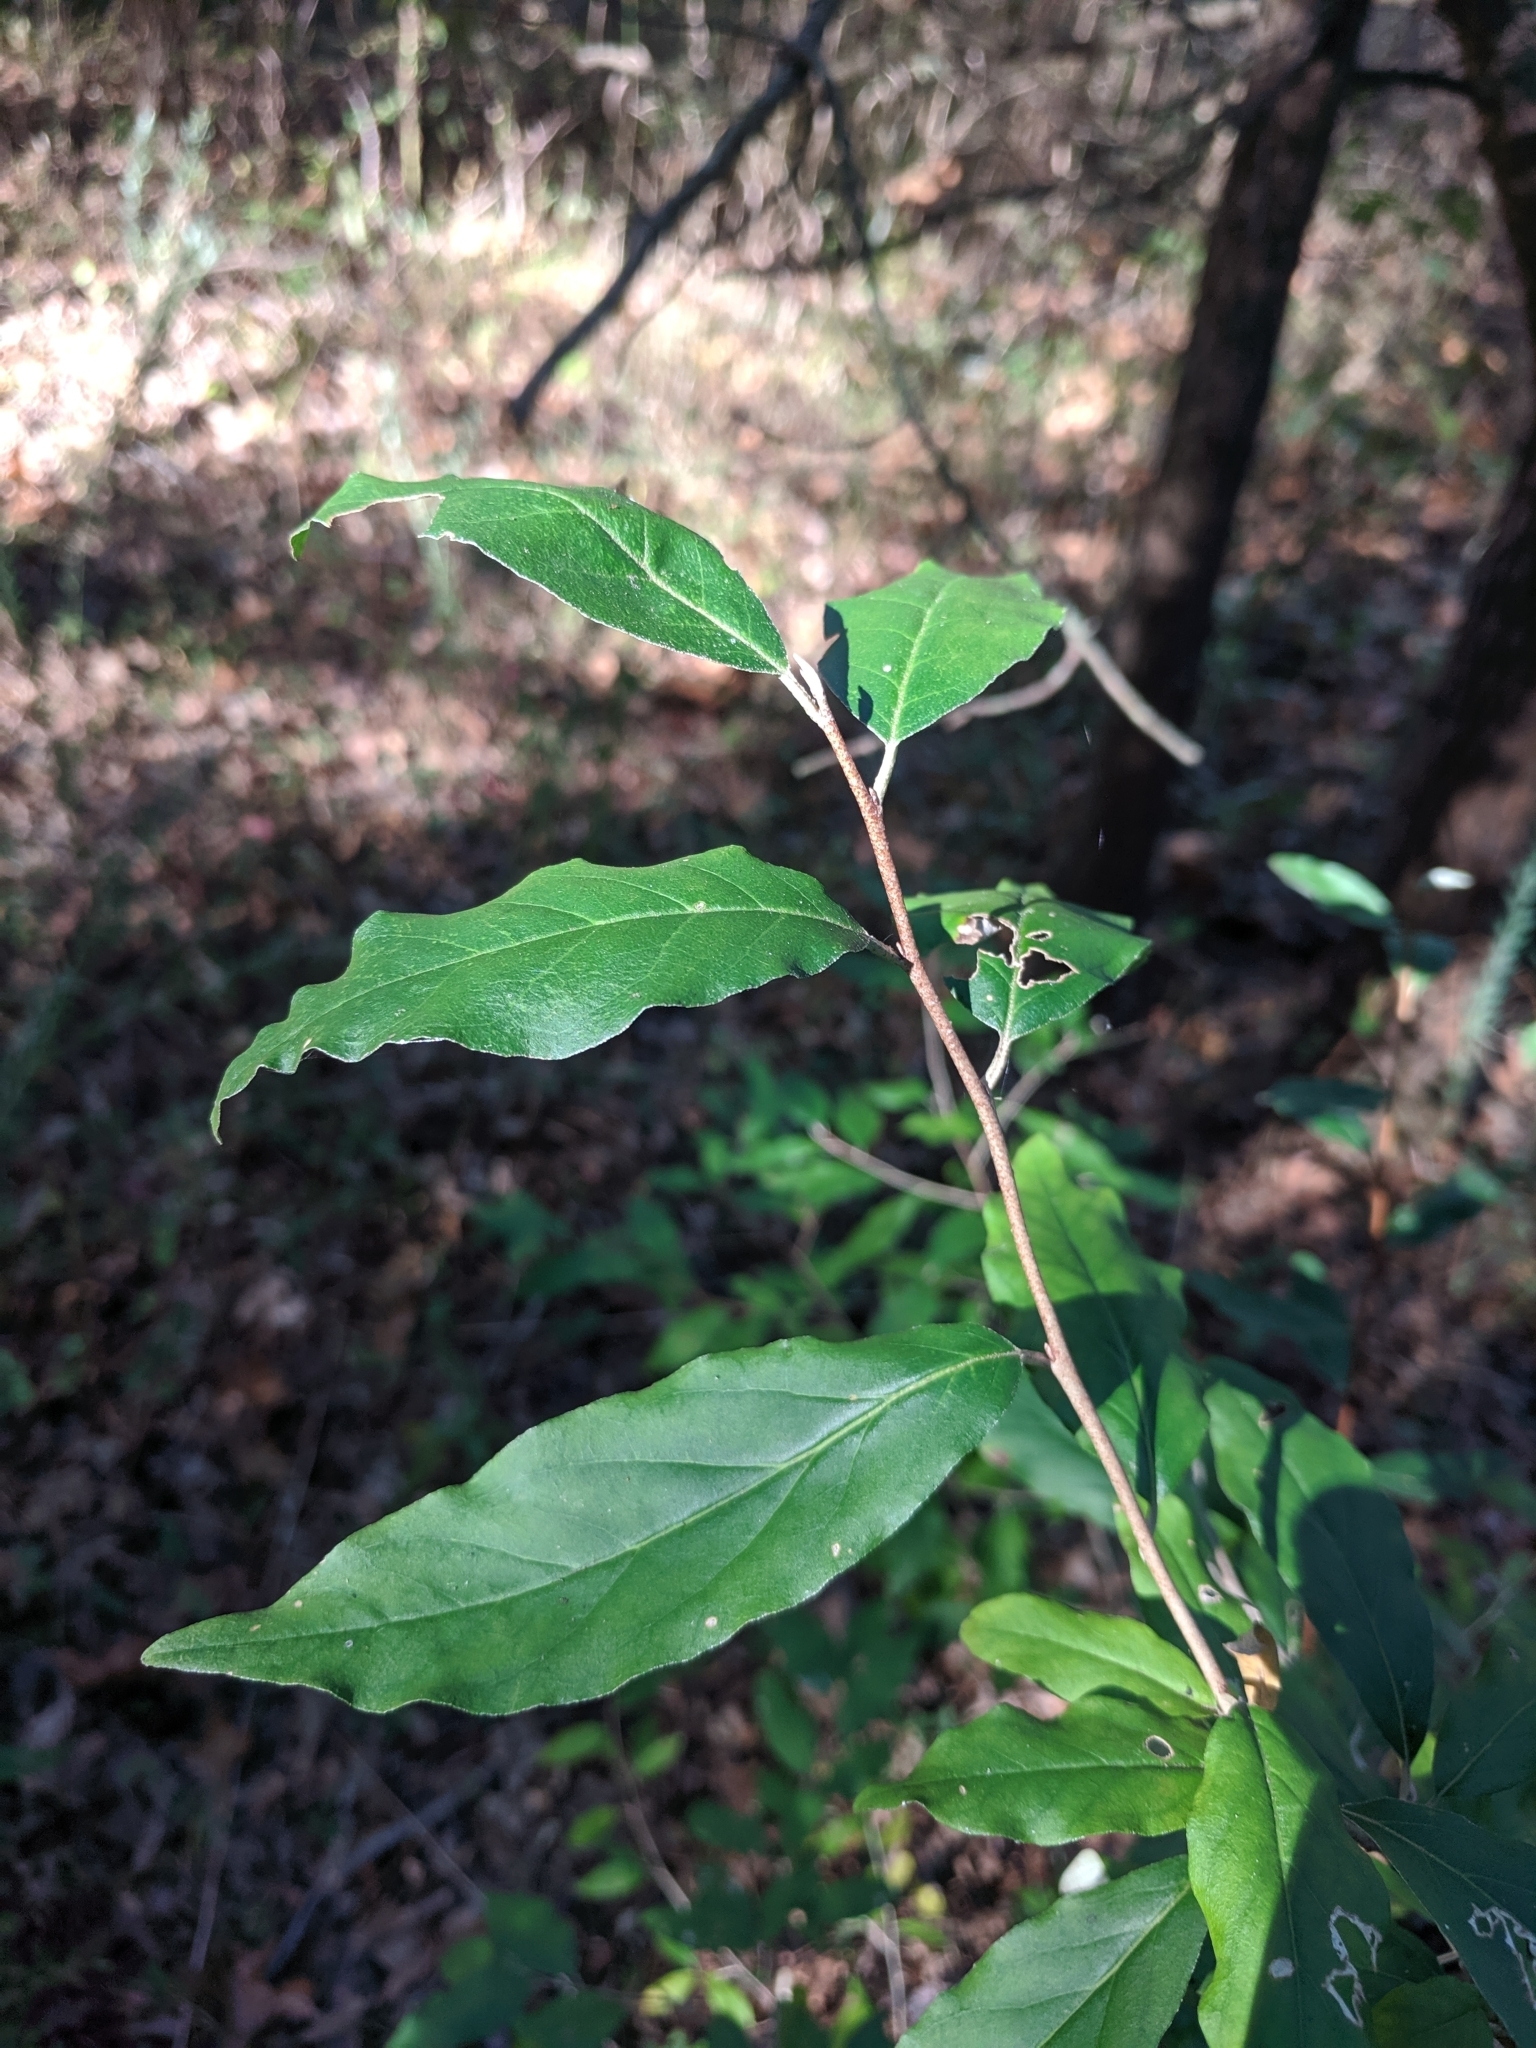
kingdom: Plantae
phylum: Tracheophyta
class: Magnoliopsida
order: Rosales
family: Elaeagnaceae
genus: Elaeagnus
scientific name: Elaeagnus umbellata
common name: Autumn olive
